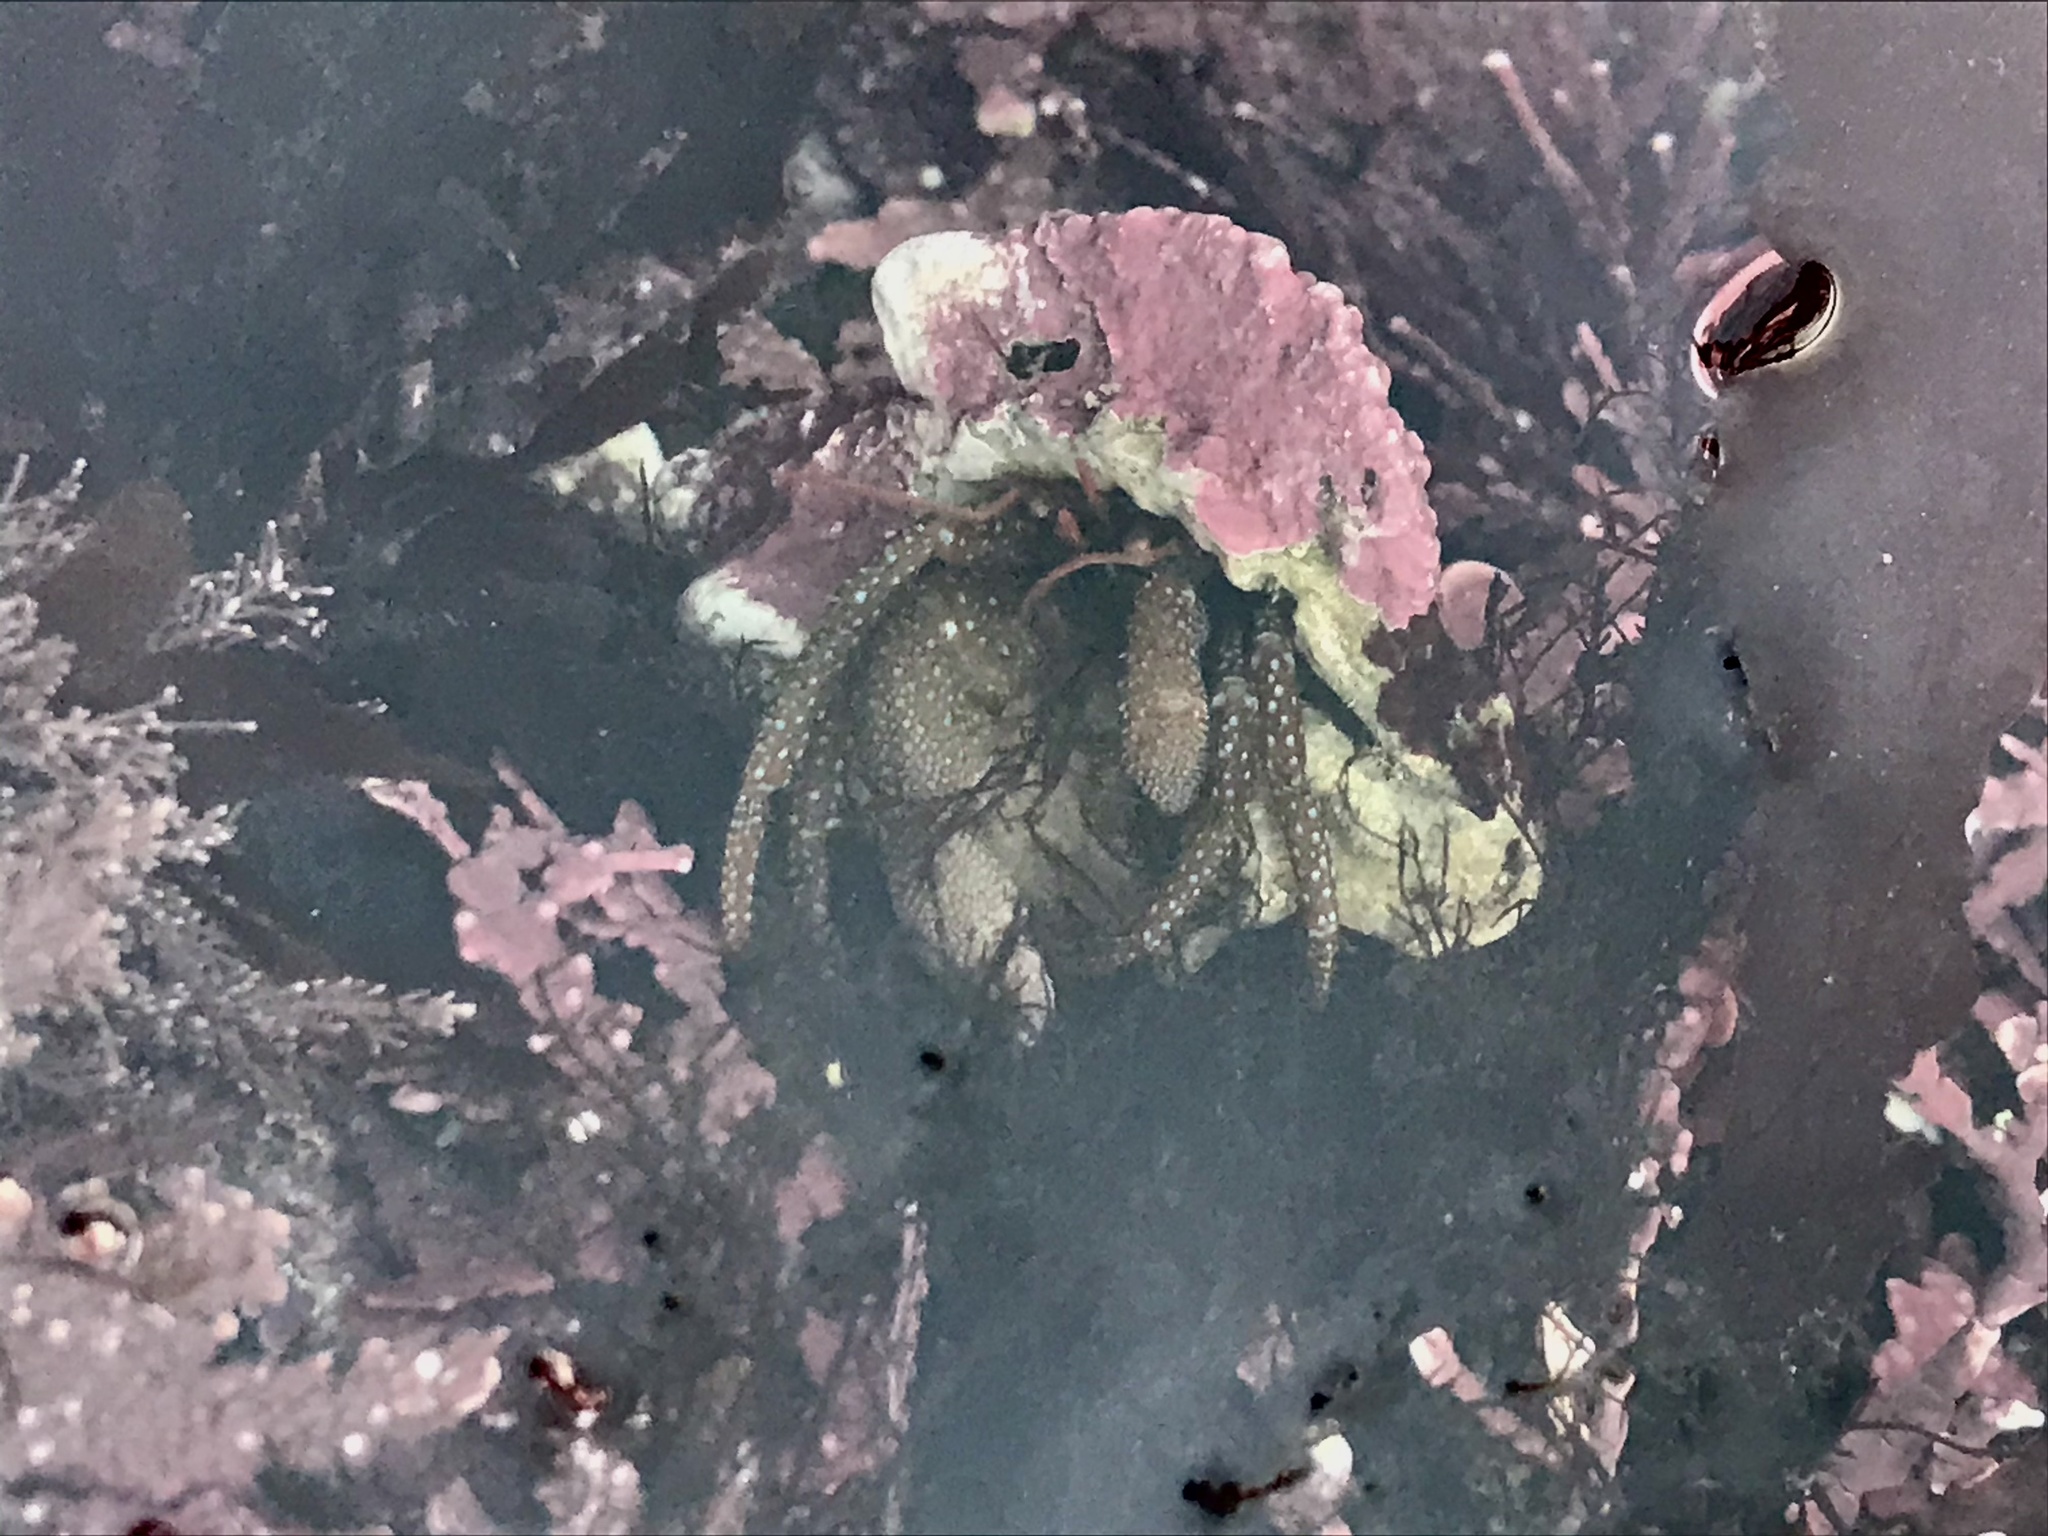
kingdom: Animalia
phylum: Arthropoda
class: Malacostraca
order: Decapoda
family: Paguridae
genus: Pagurus
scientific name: Pagurus granosimanus
